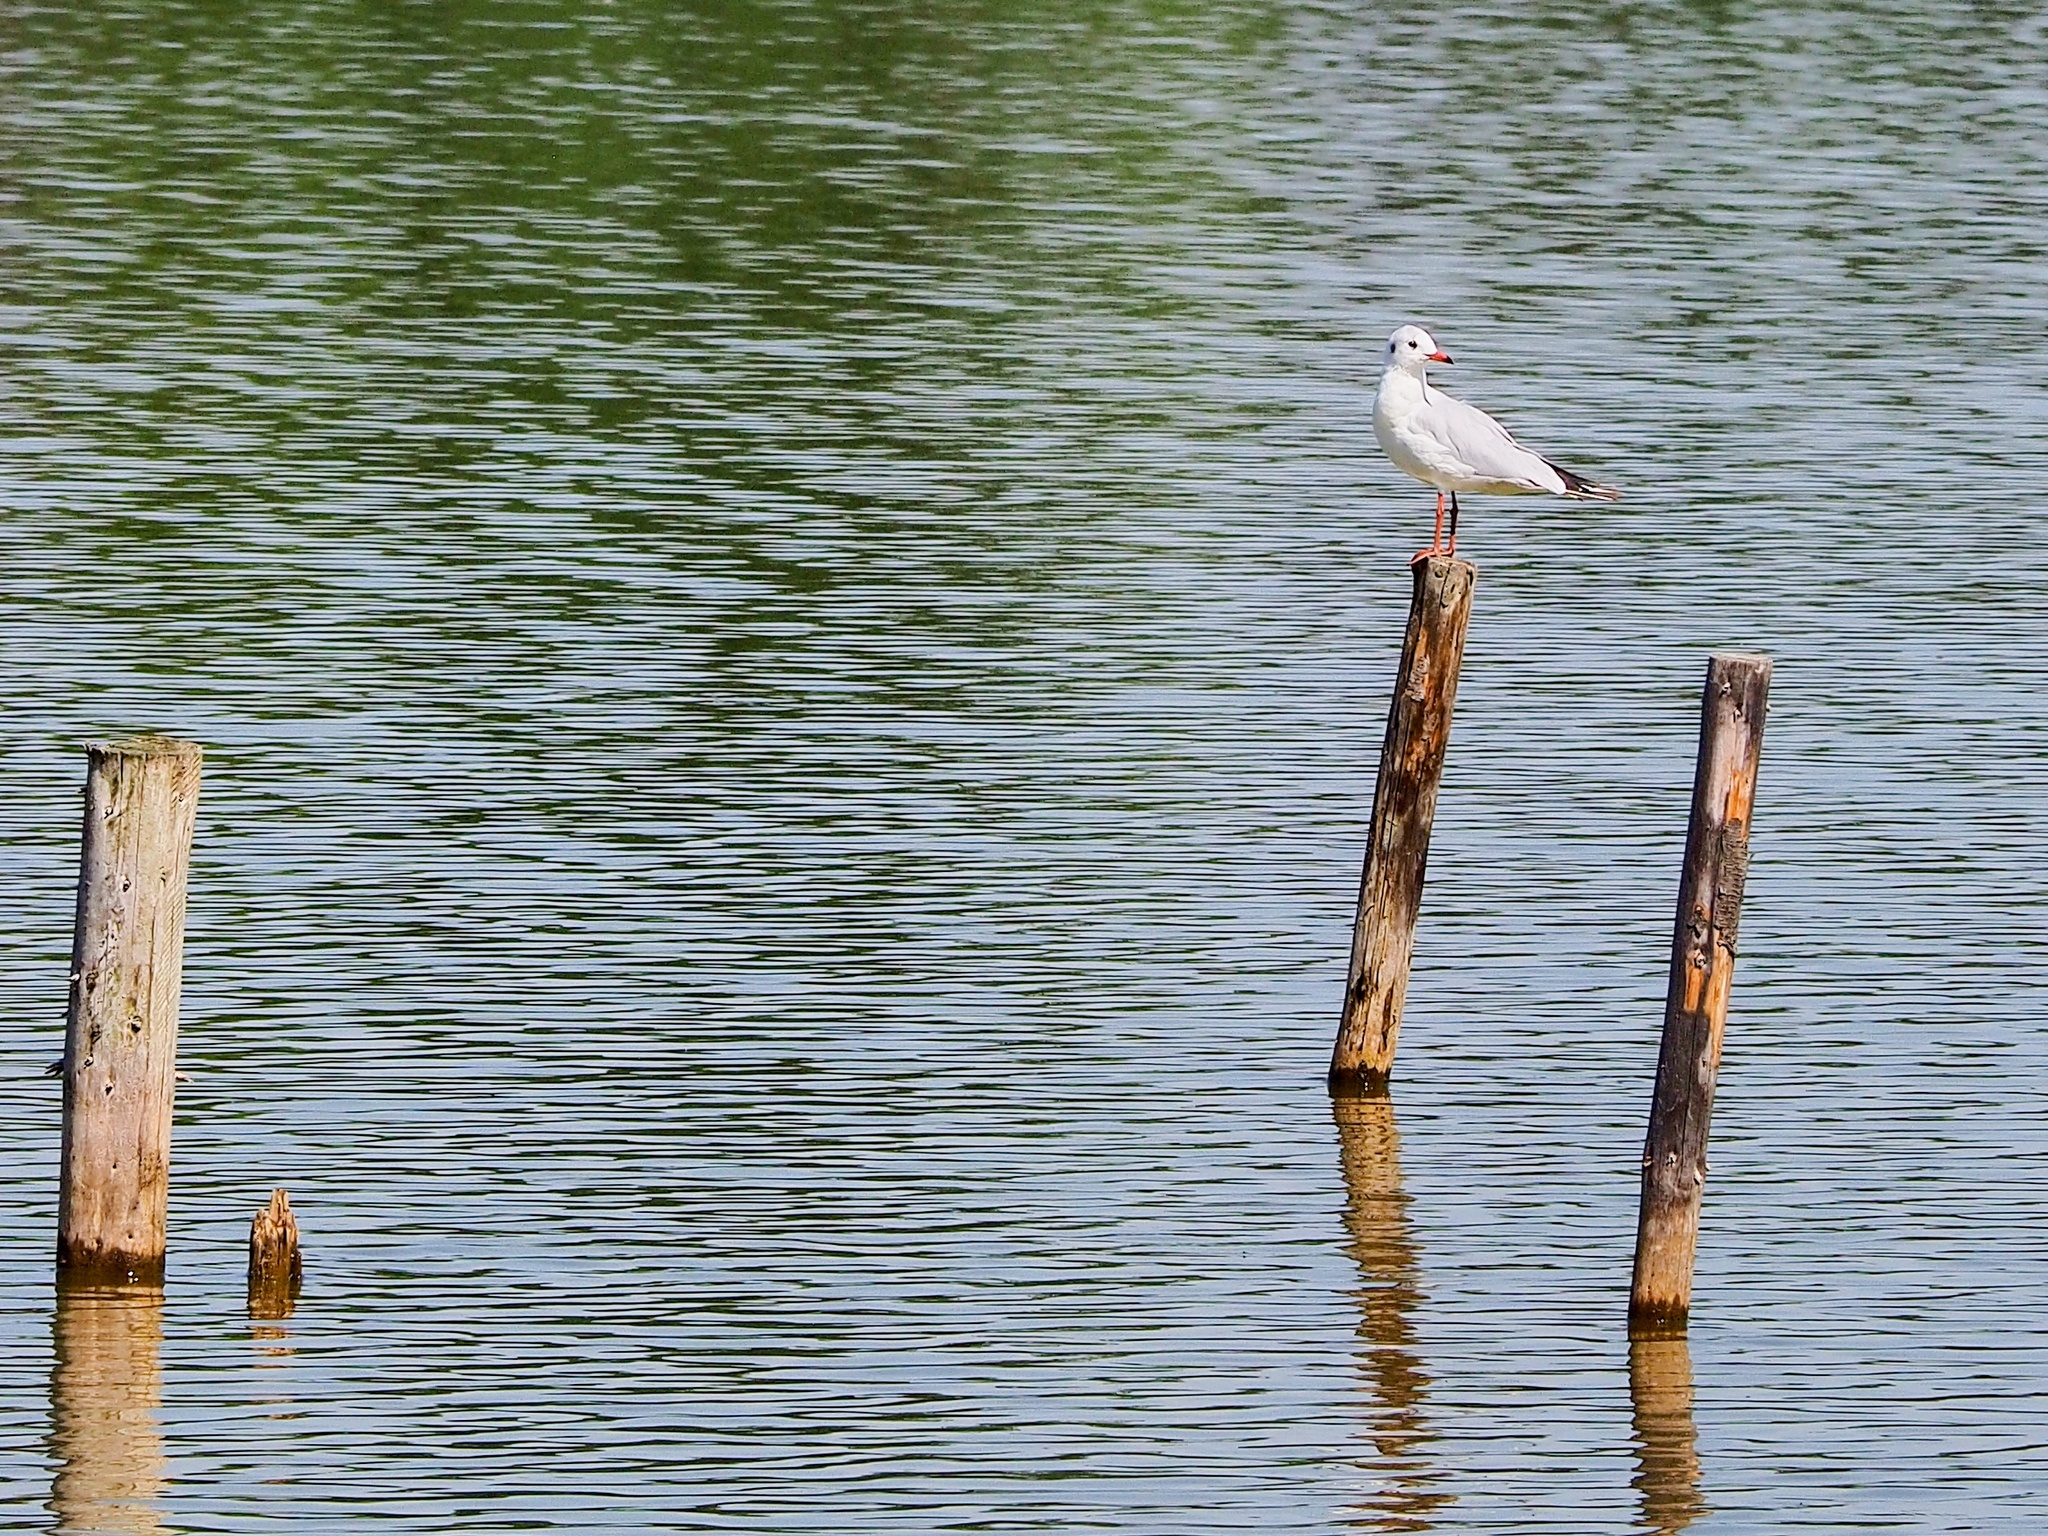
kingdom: Animalia
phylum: Chordata
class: Aves
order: Charadriiformes
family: Laridae
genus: Chroicocephalus
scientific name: Chroicocephalus ridibundus
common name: Black-headed gull
